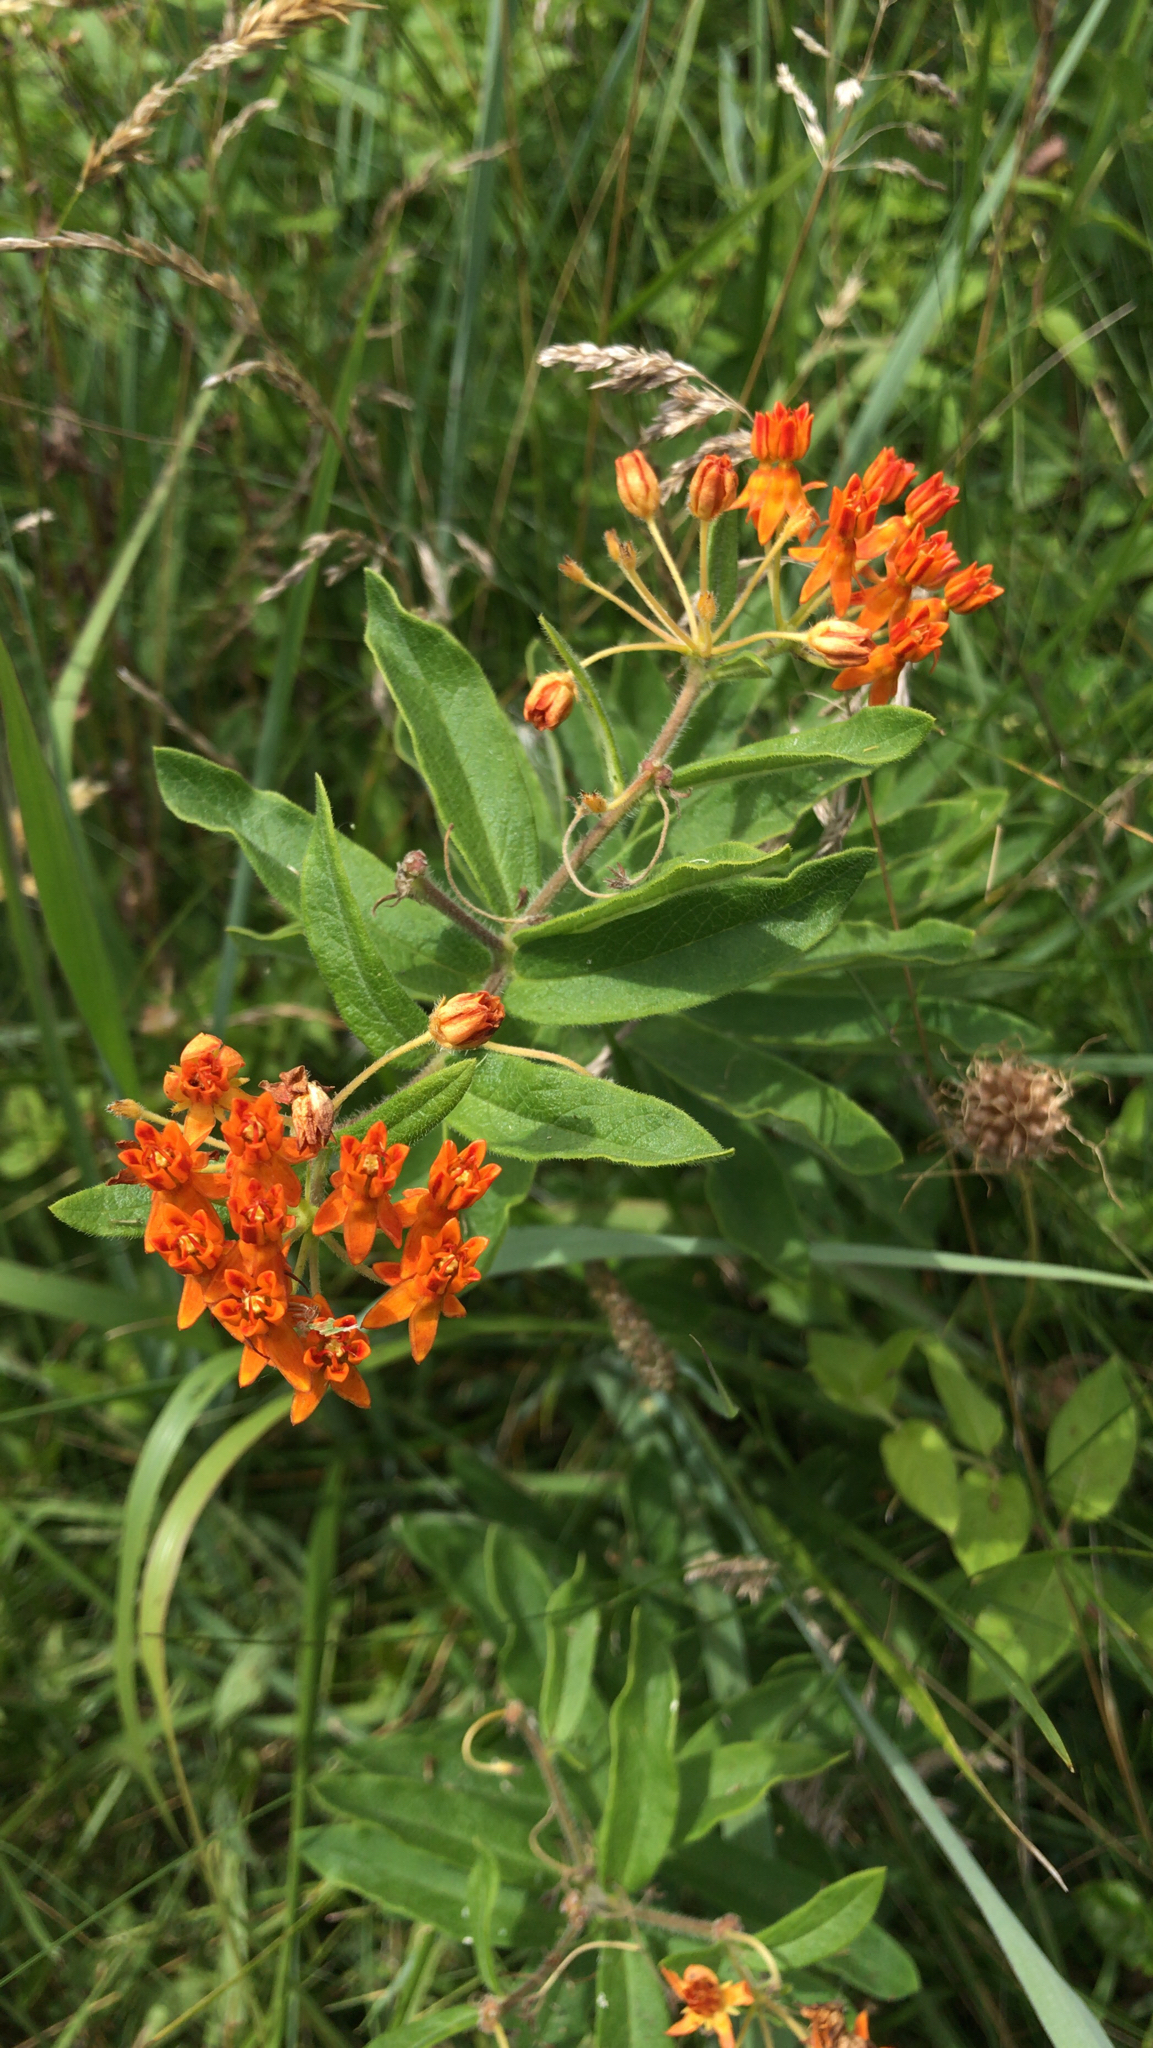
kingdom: Plantae
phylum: Tracheophyta
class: Magnoliopsida
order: Gentianales
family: Apocynaceae
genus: Asclepias
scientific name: Asclepias tuberosa
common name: Butterfly milkweed
